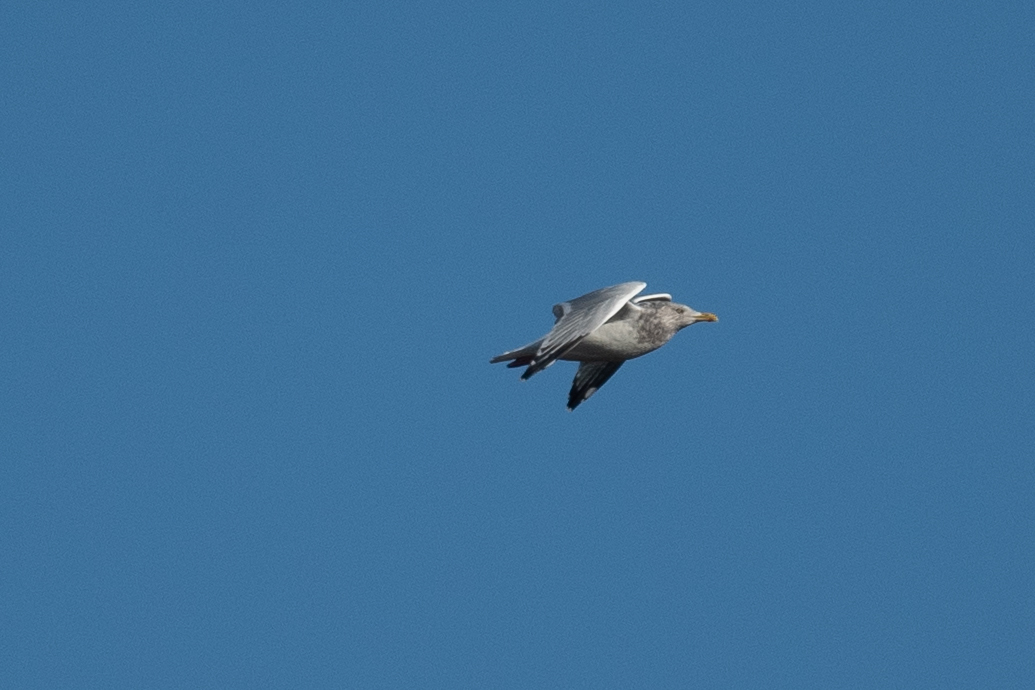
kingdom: Animalia
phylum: Chordata
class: Aves
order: Charadriiformes
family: Laridae
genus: Larus
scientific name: Larus argentatus
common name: Herring gull
